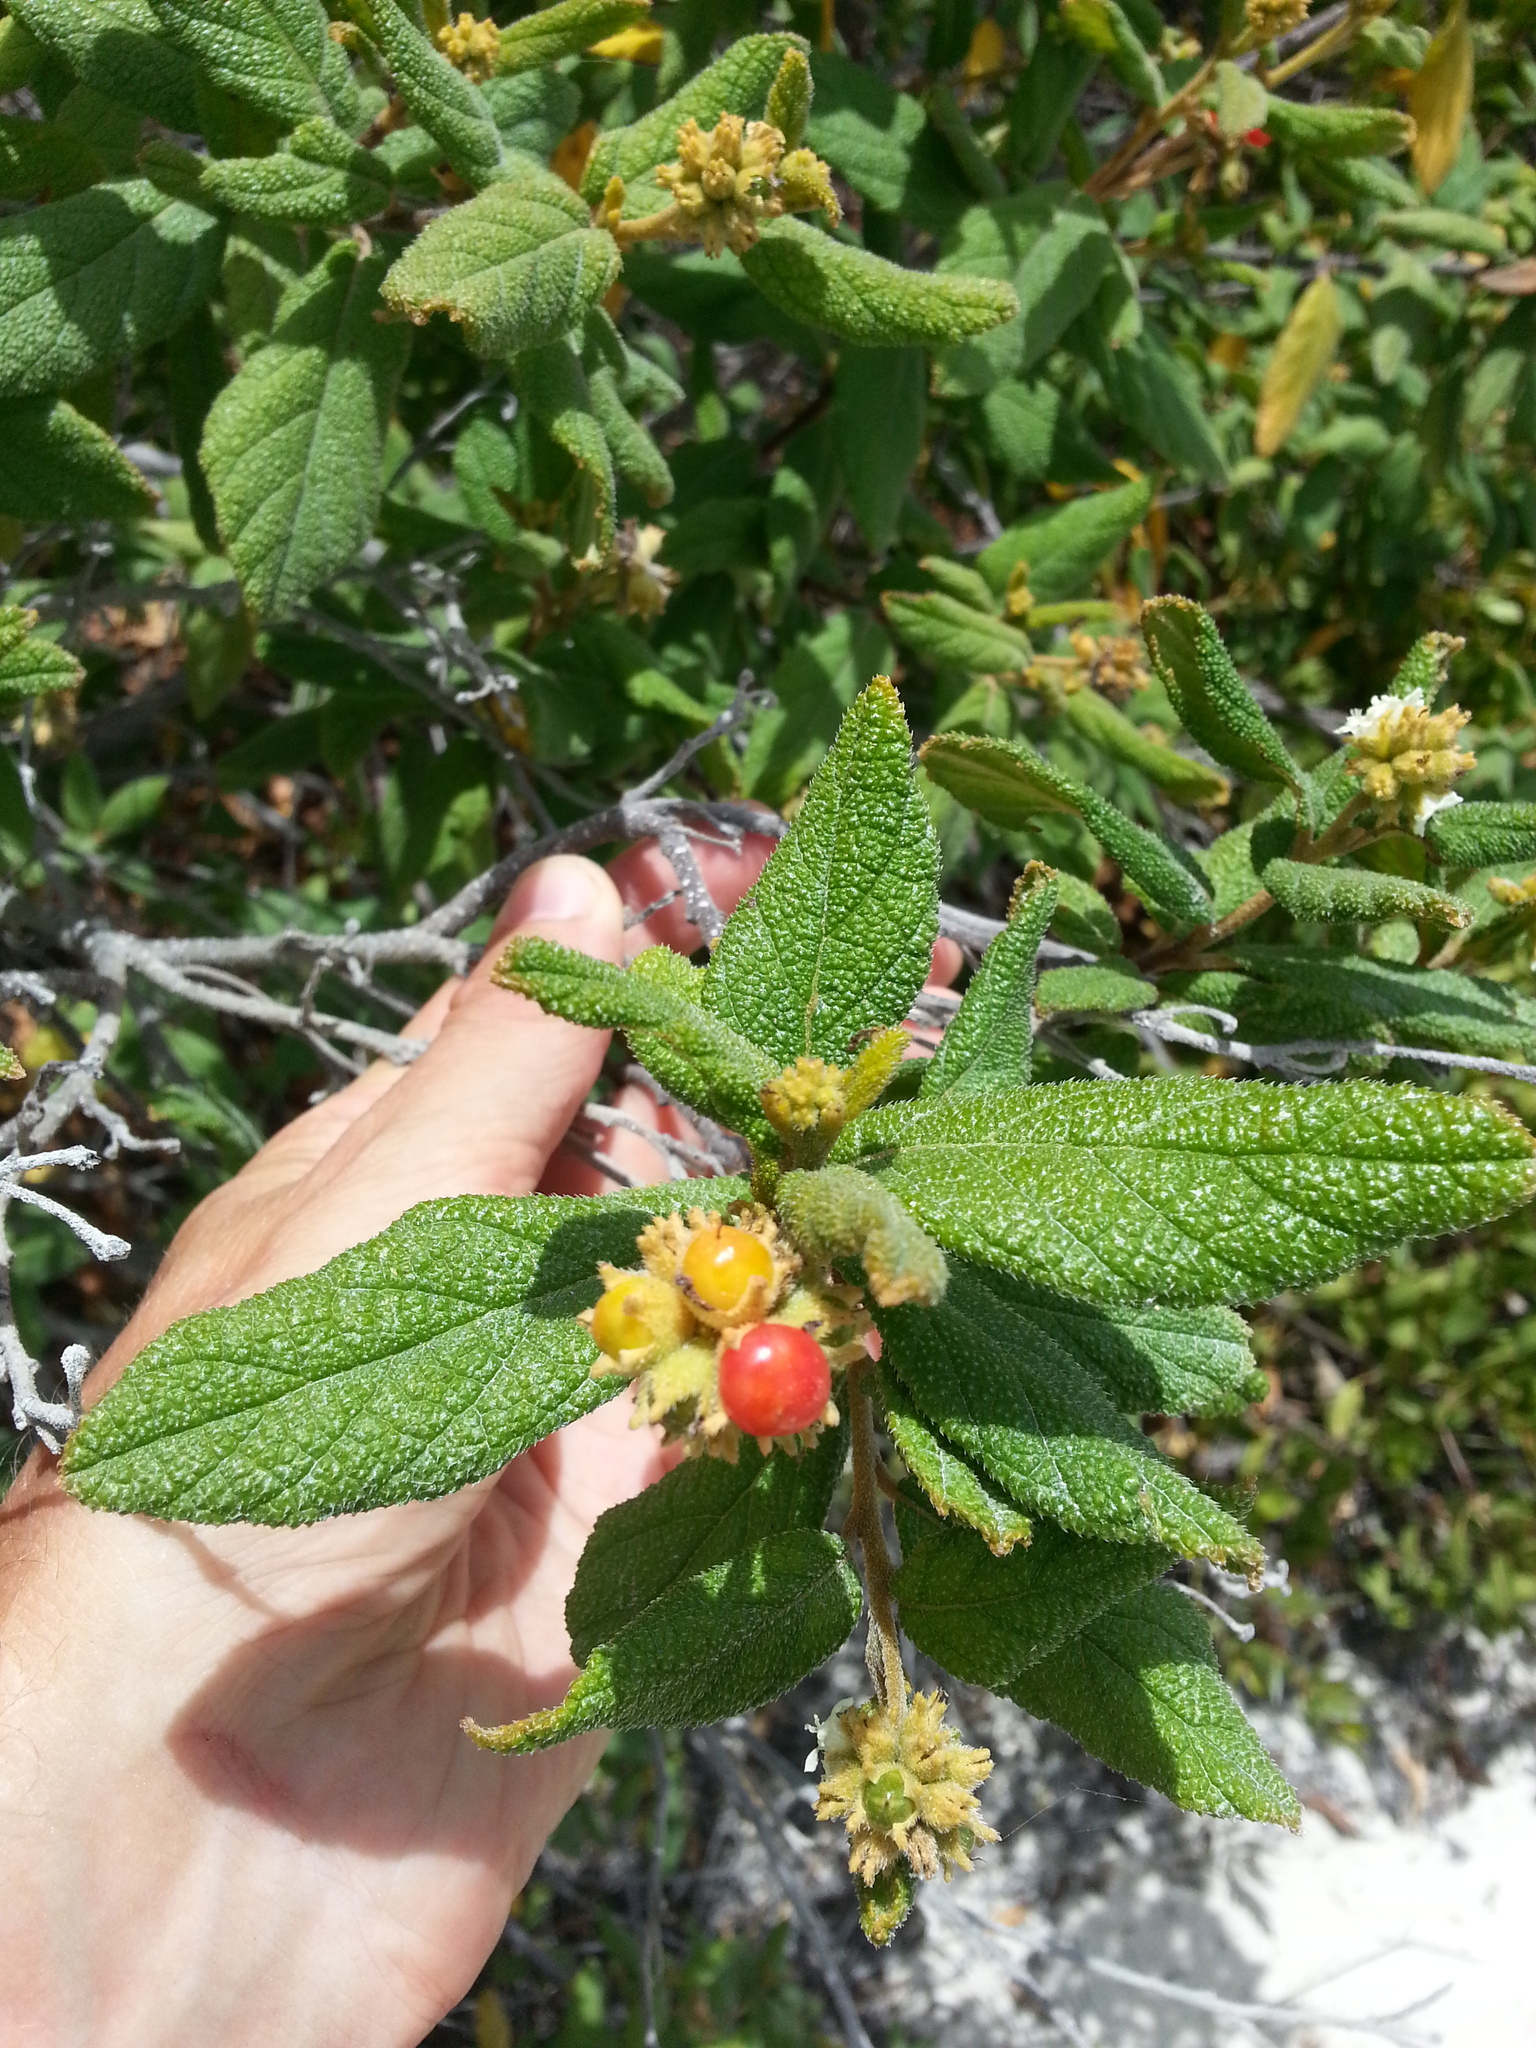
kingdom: Plantae
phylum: Tracheophyta
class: Magnoliopsida
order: Boraginales
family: Cordiaceae
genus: Varronia
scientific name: Varronia rupicola
